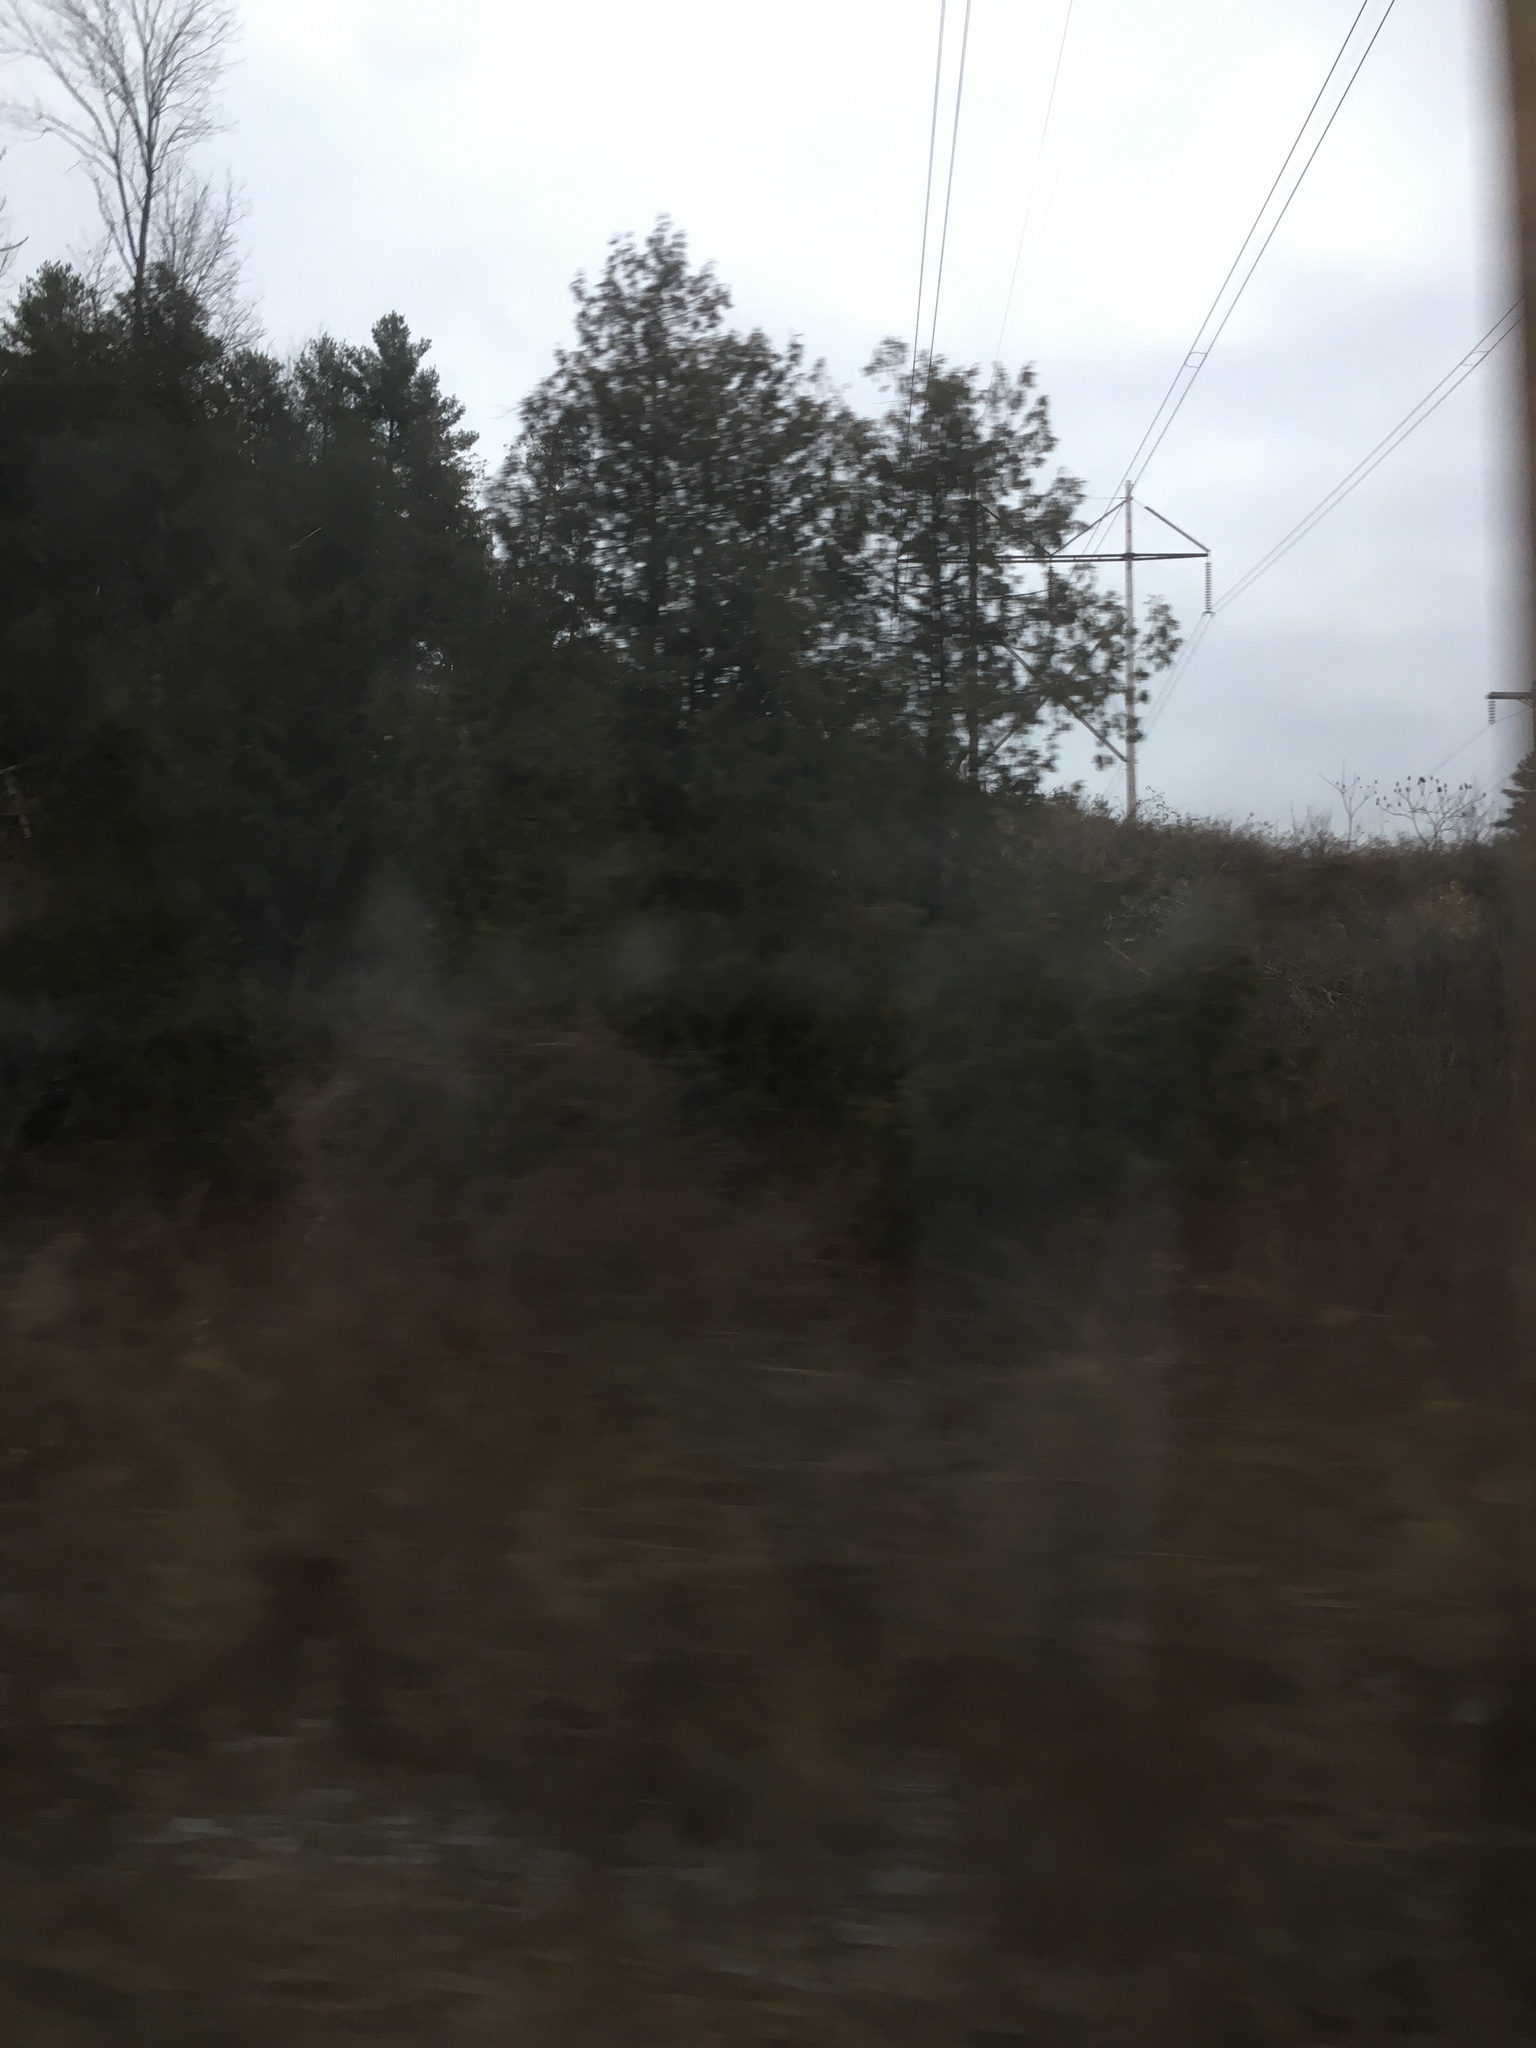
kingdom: Plantae
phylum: Tracheophyta
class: Pinopsida
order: Pinales
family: Cupressaceae
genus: Thuja
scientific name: Thuja occidentalis
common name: Northern white-cedar
